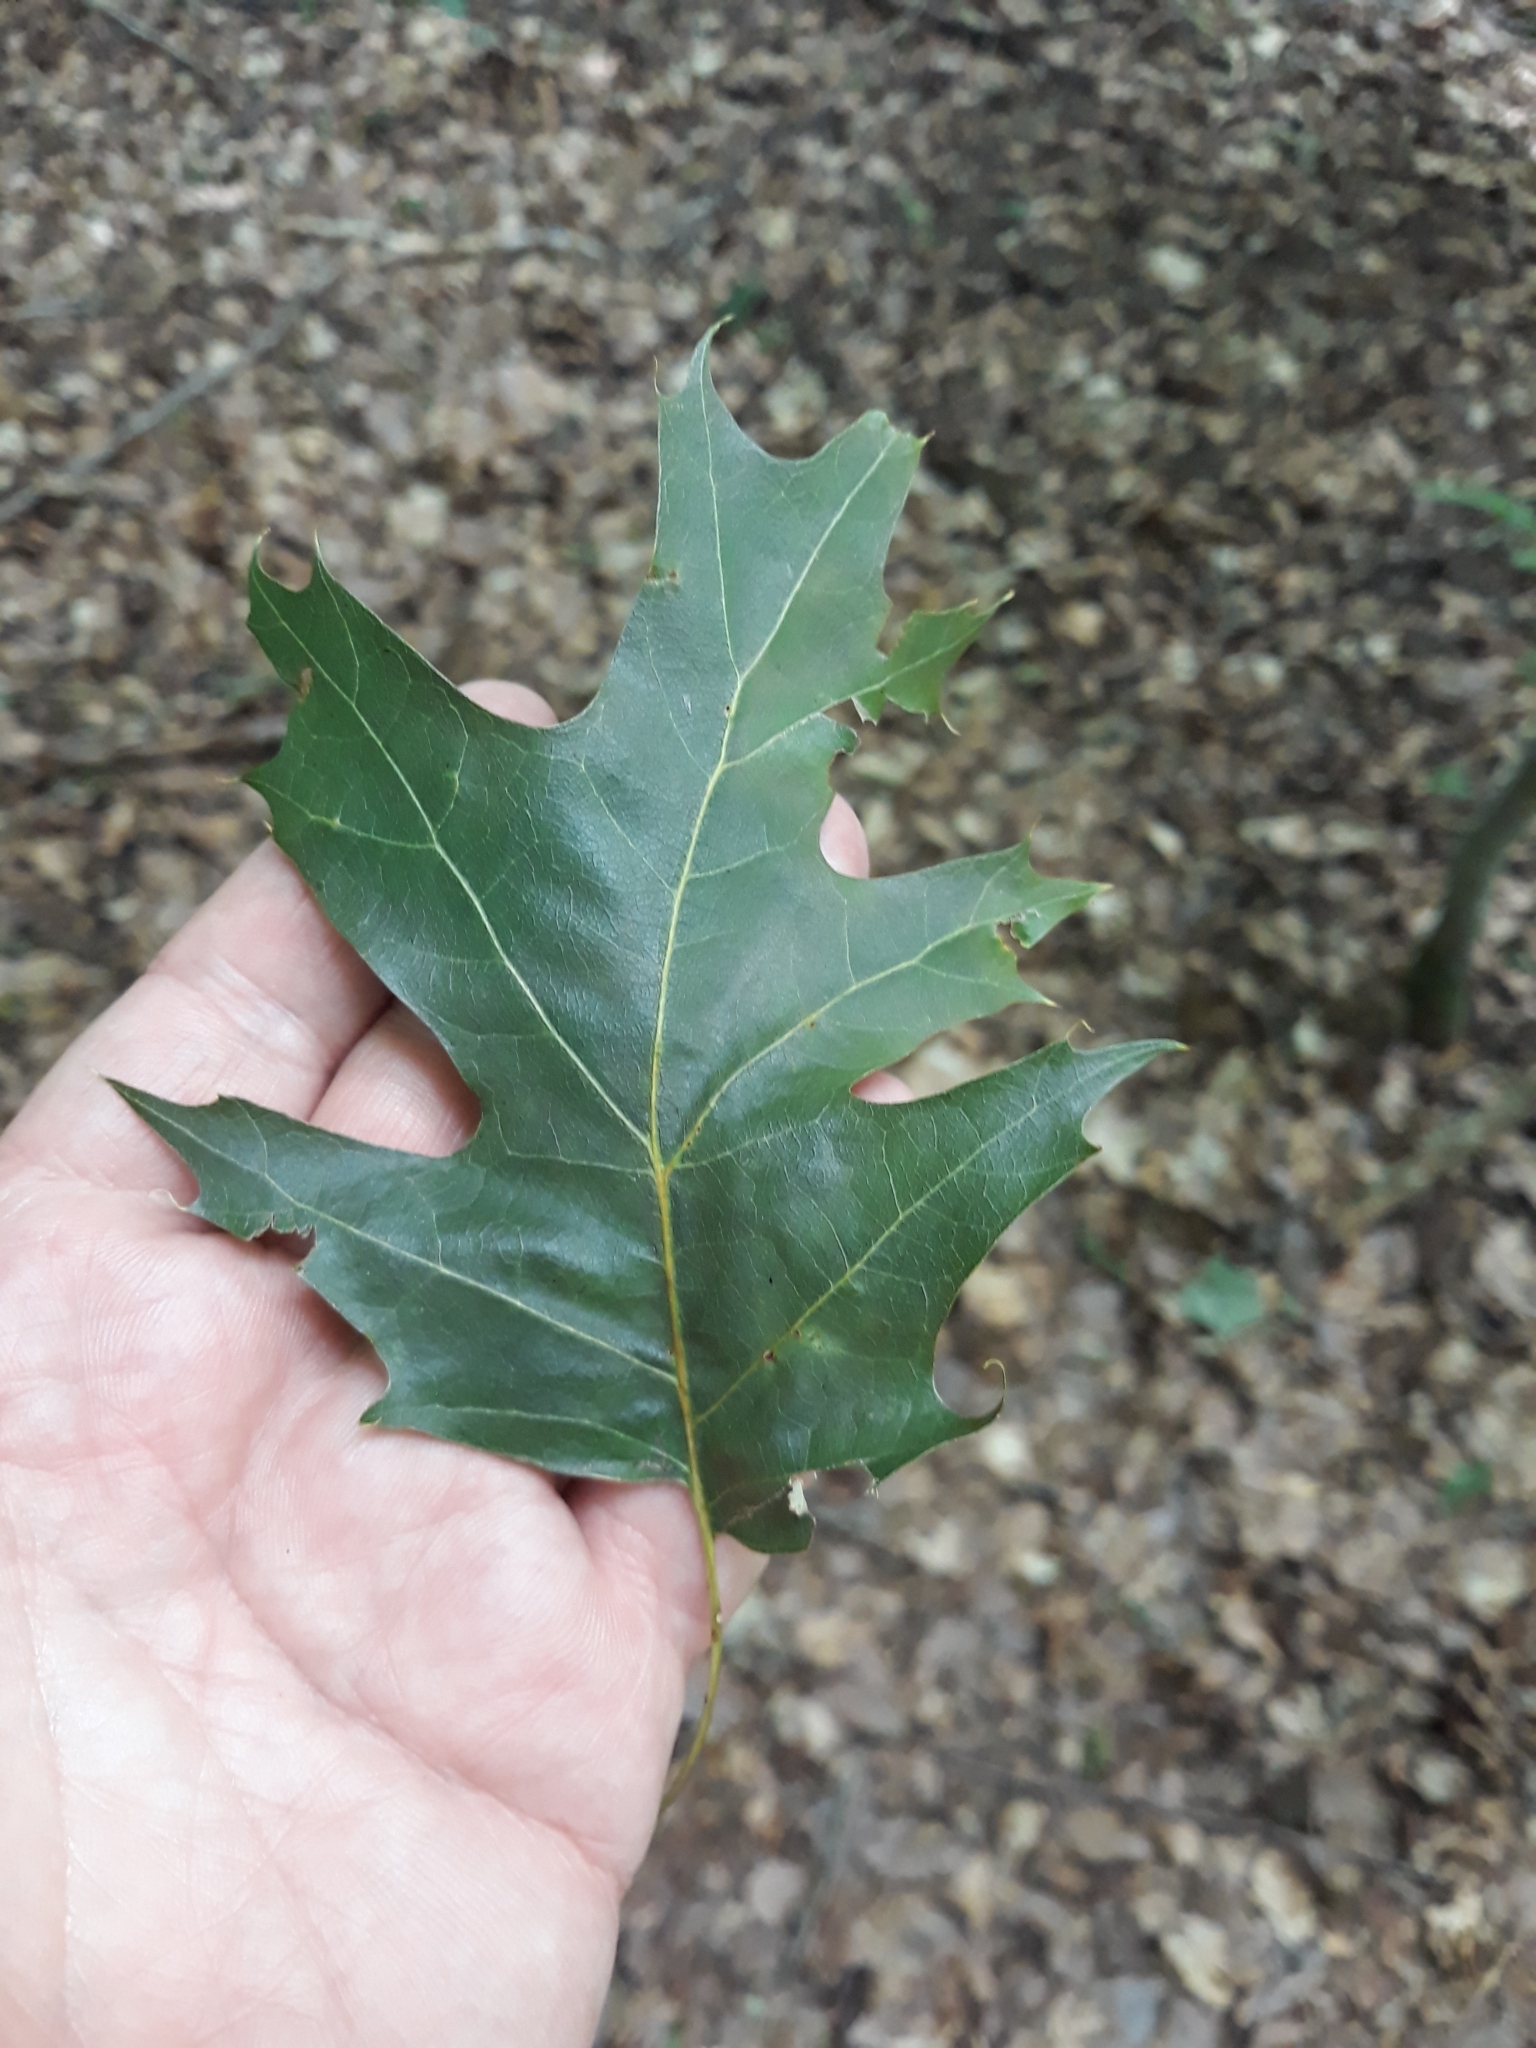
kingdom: Plantae
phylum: Tracheophyta
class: Magnoliopsida
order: Fagales
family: Fagaceae
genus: Quercus
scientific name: Quercus rubra
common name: Red oak
